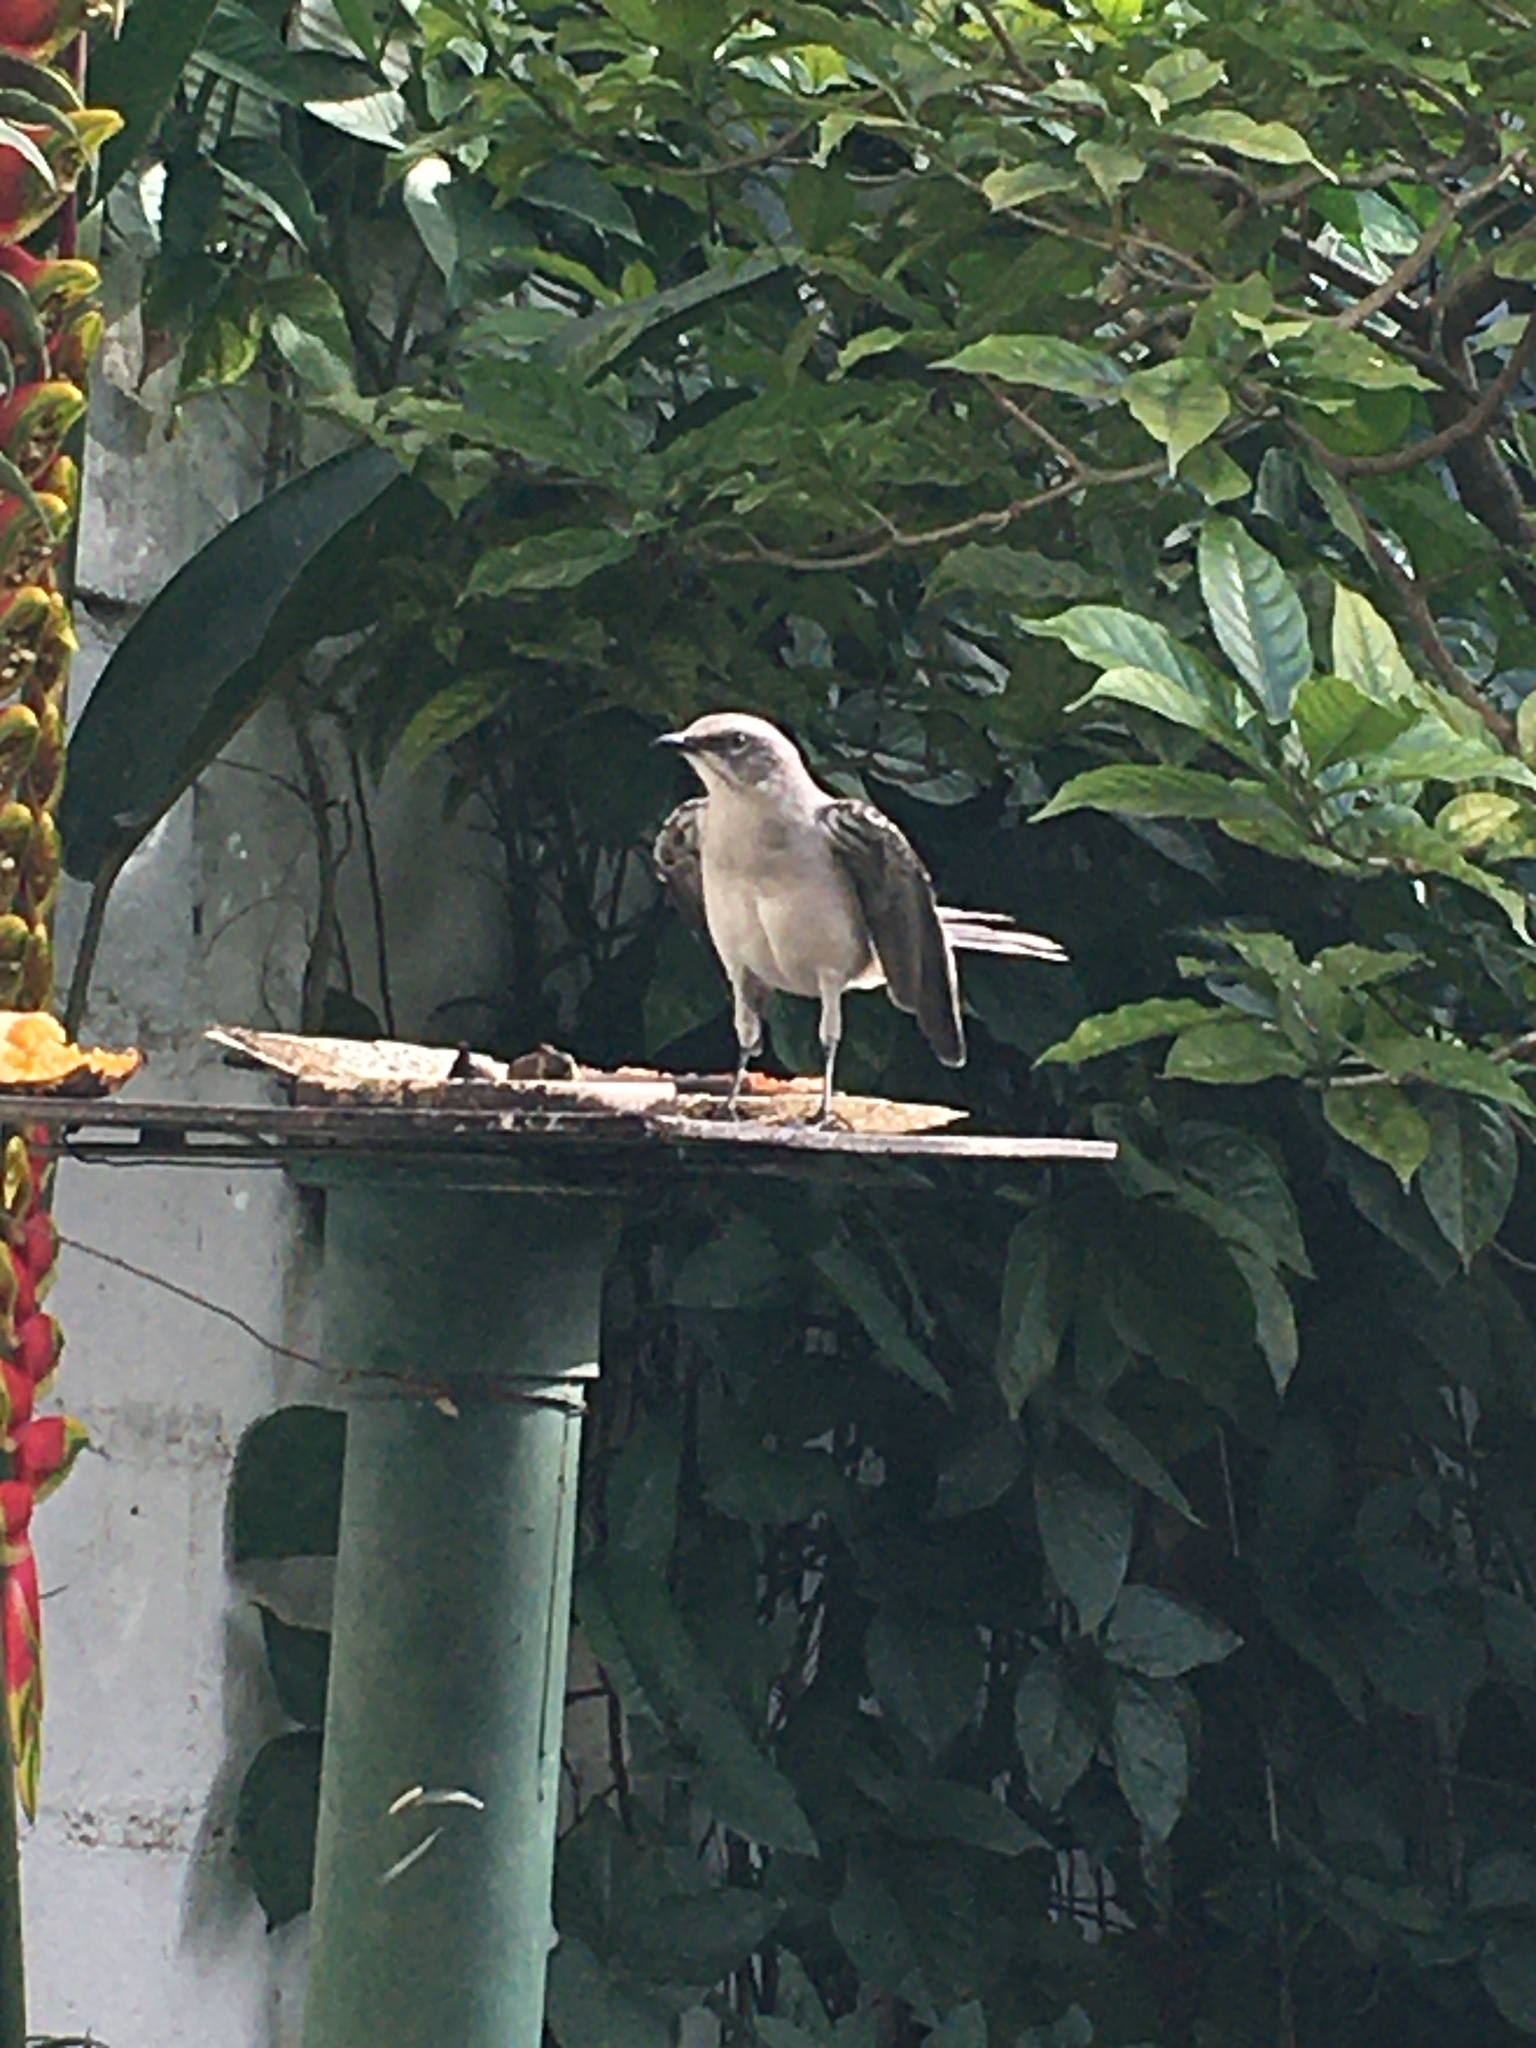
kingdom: Animalia
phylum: Chordata
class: Aves
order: Passeriformes
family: Mimidae
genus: Mimus
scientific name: Mimus gilvus
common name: Tropical mockingbird
